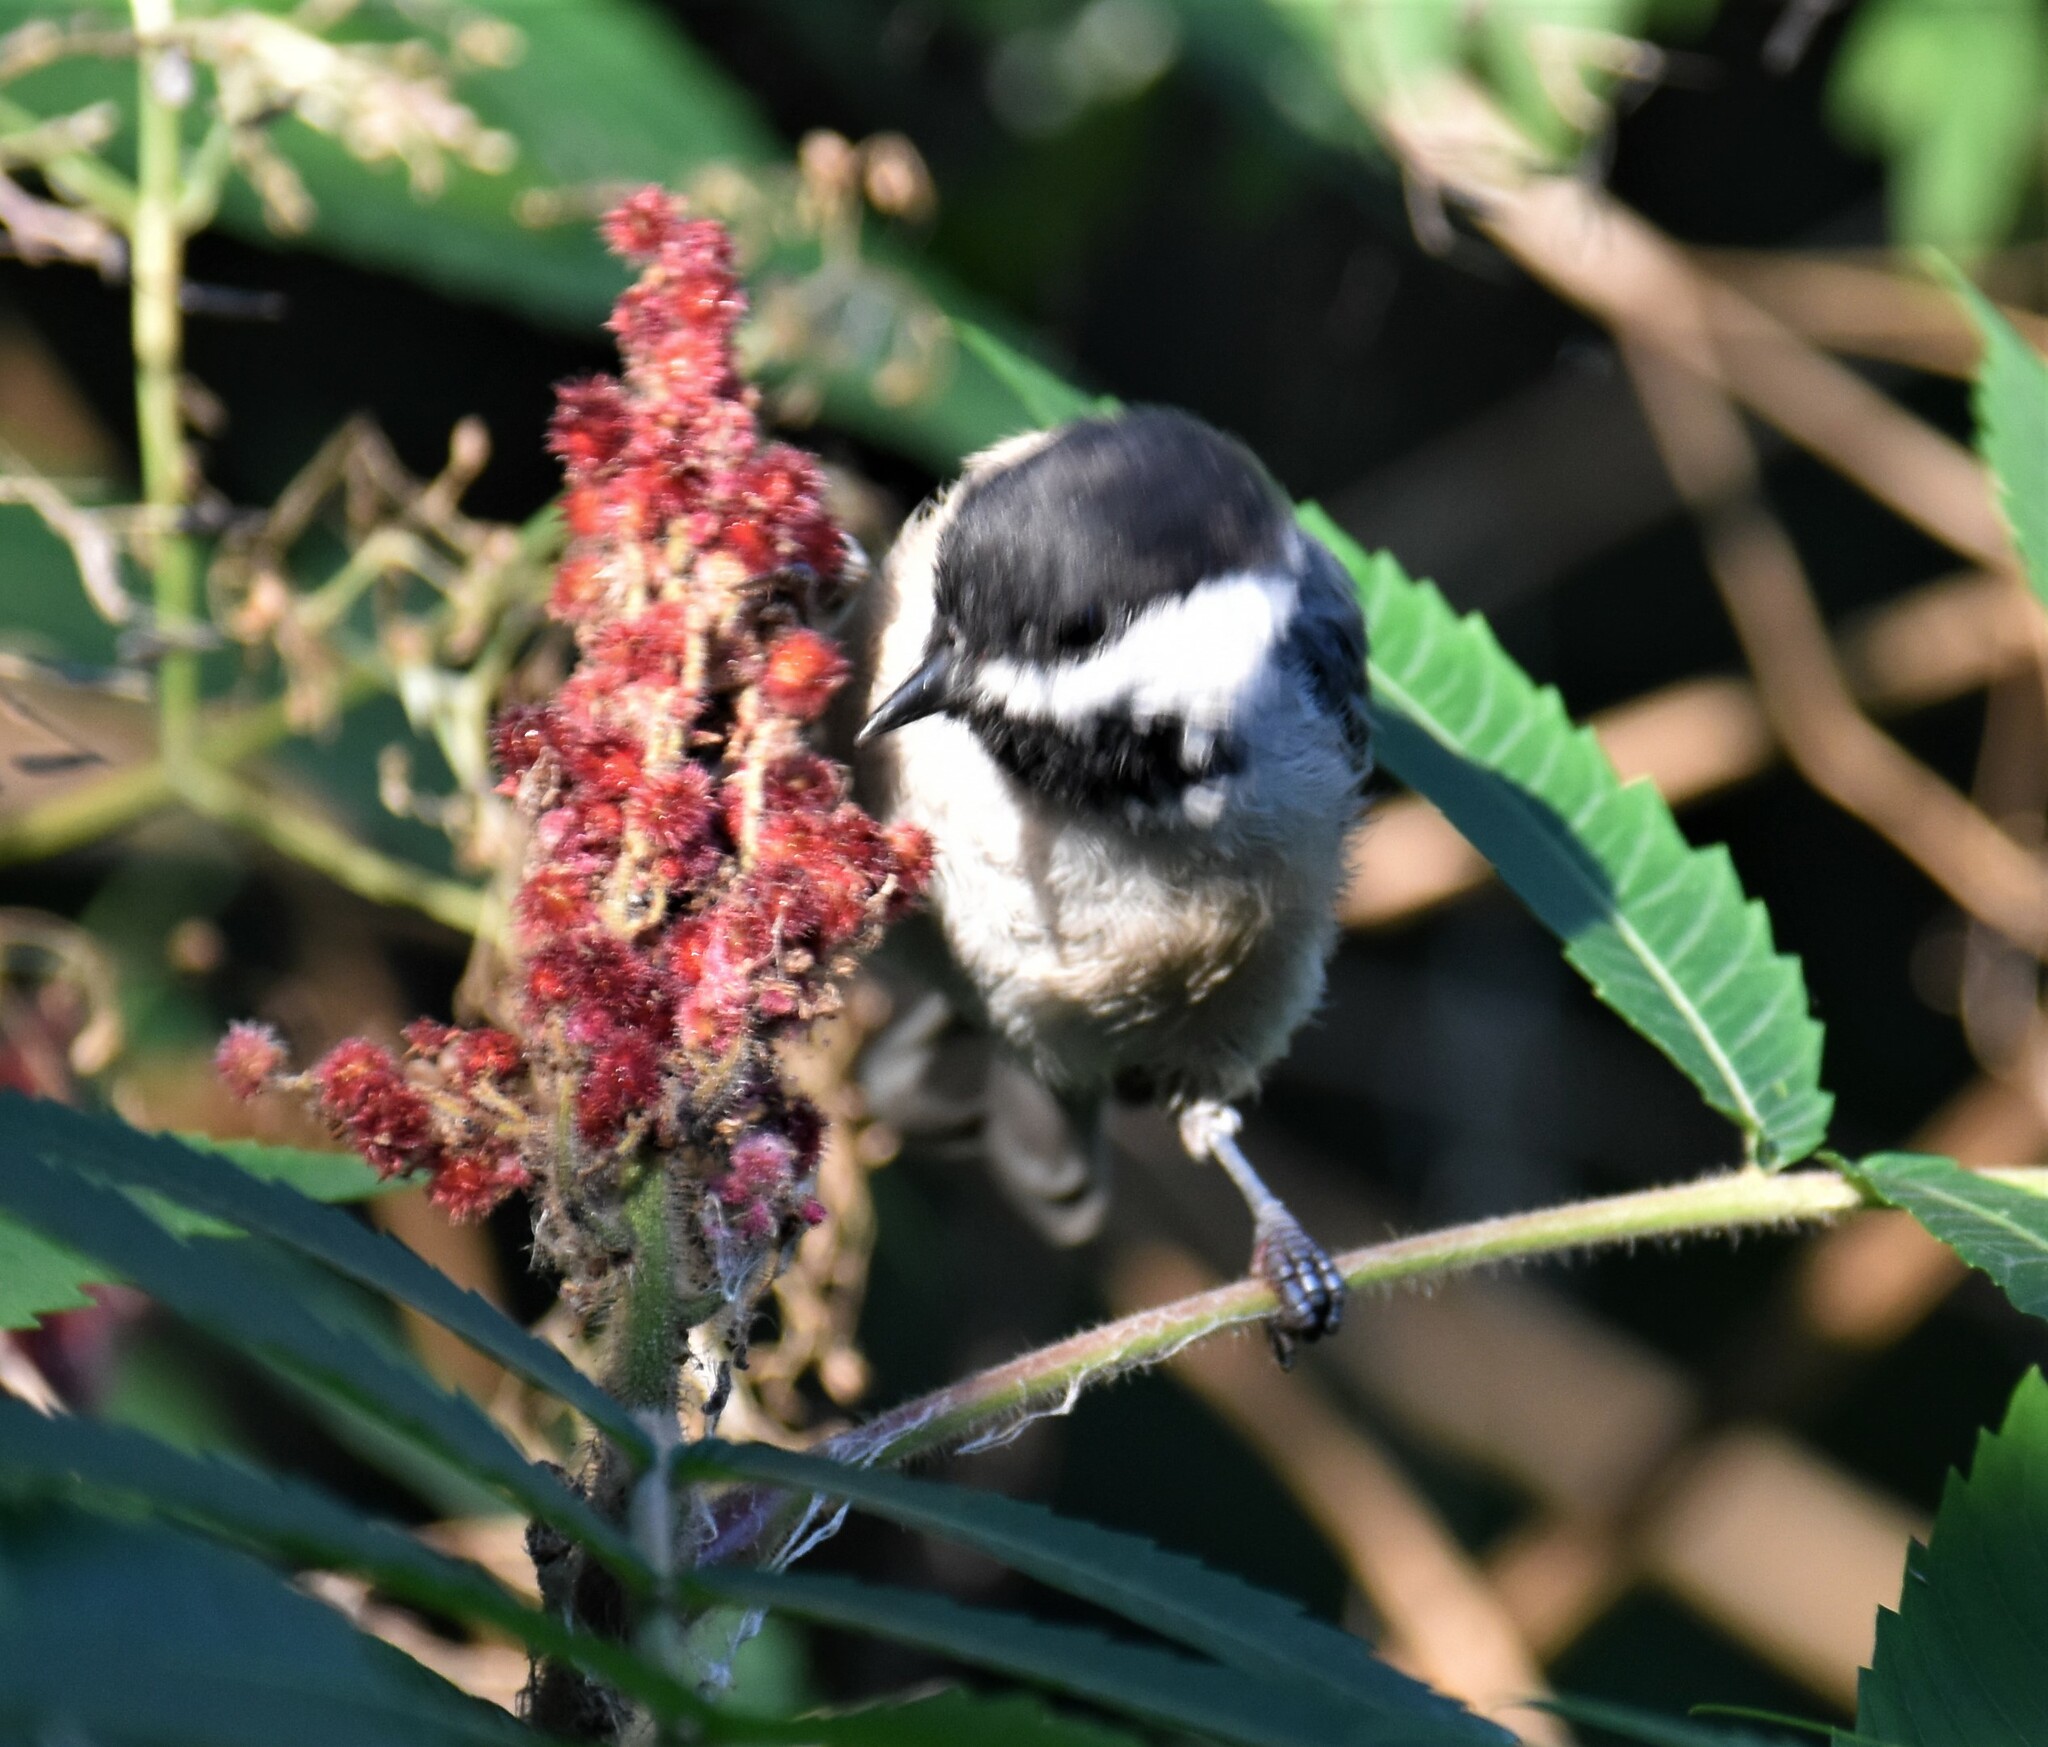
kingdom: Animalia
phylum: Chordata
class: Aves
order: Passeriformes
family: Paridae
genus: Poecile
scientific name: Poecile atricapillus
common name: Black-capped chickadee
